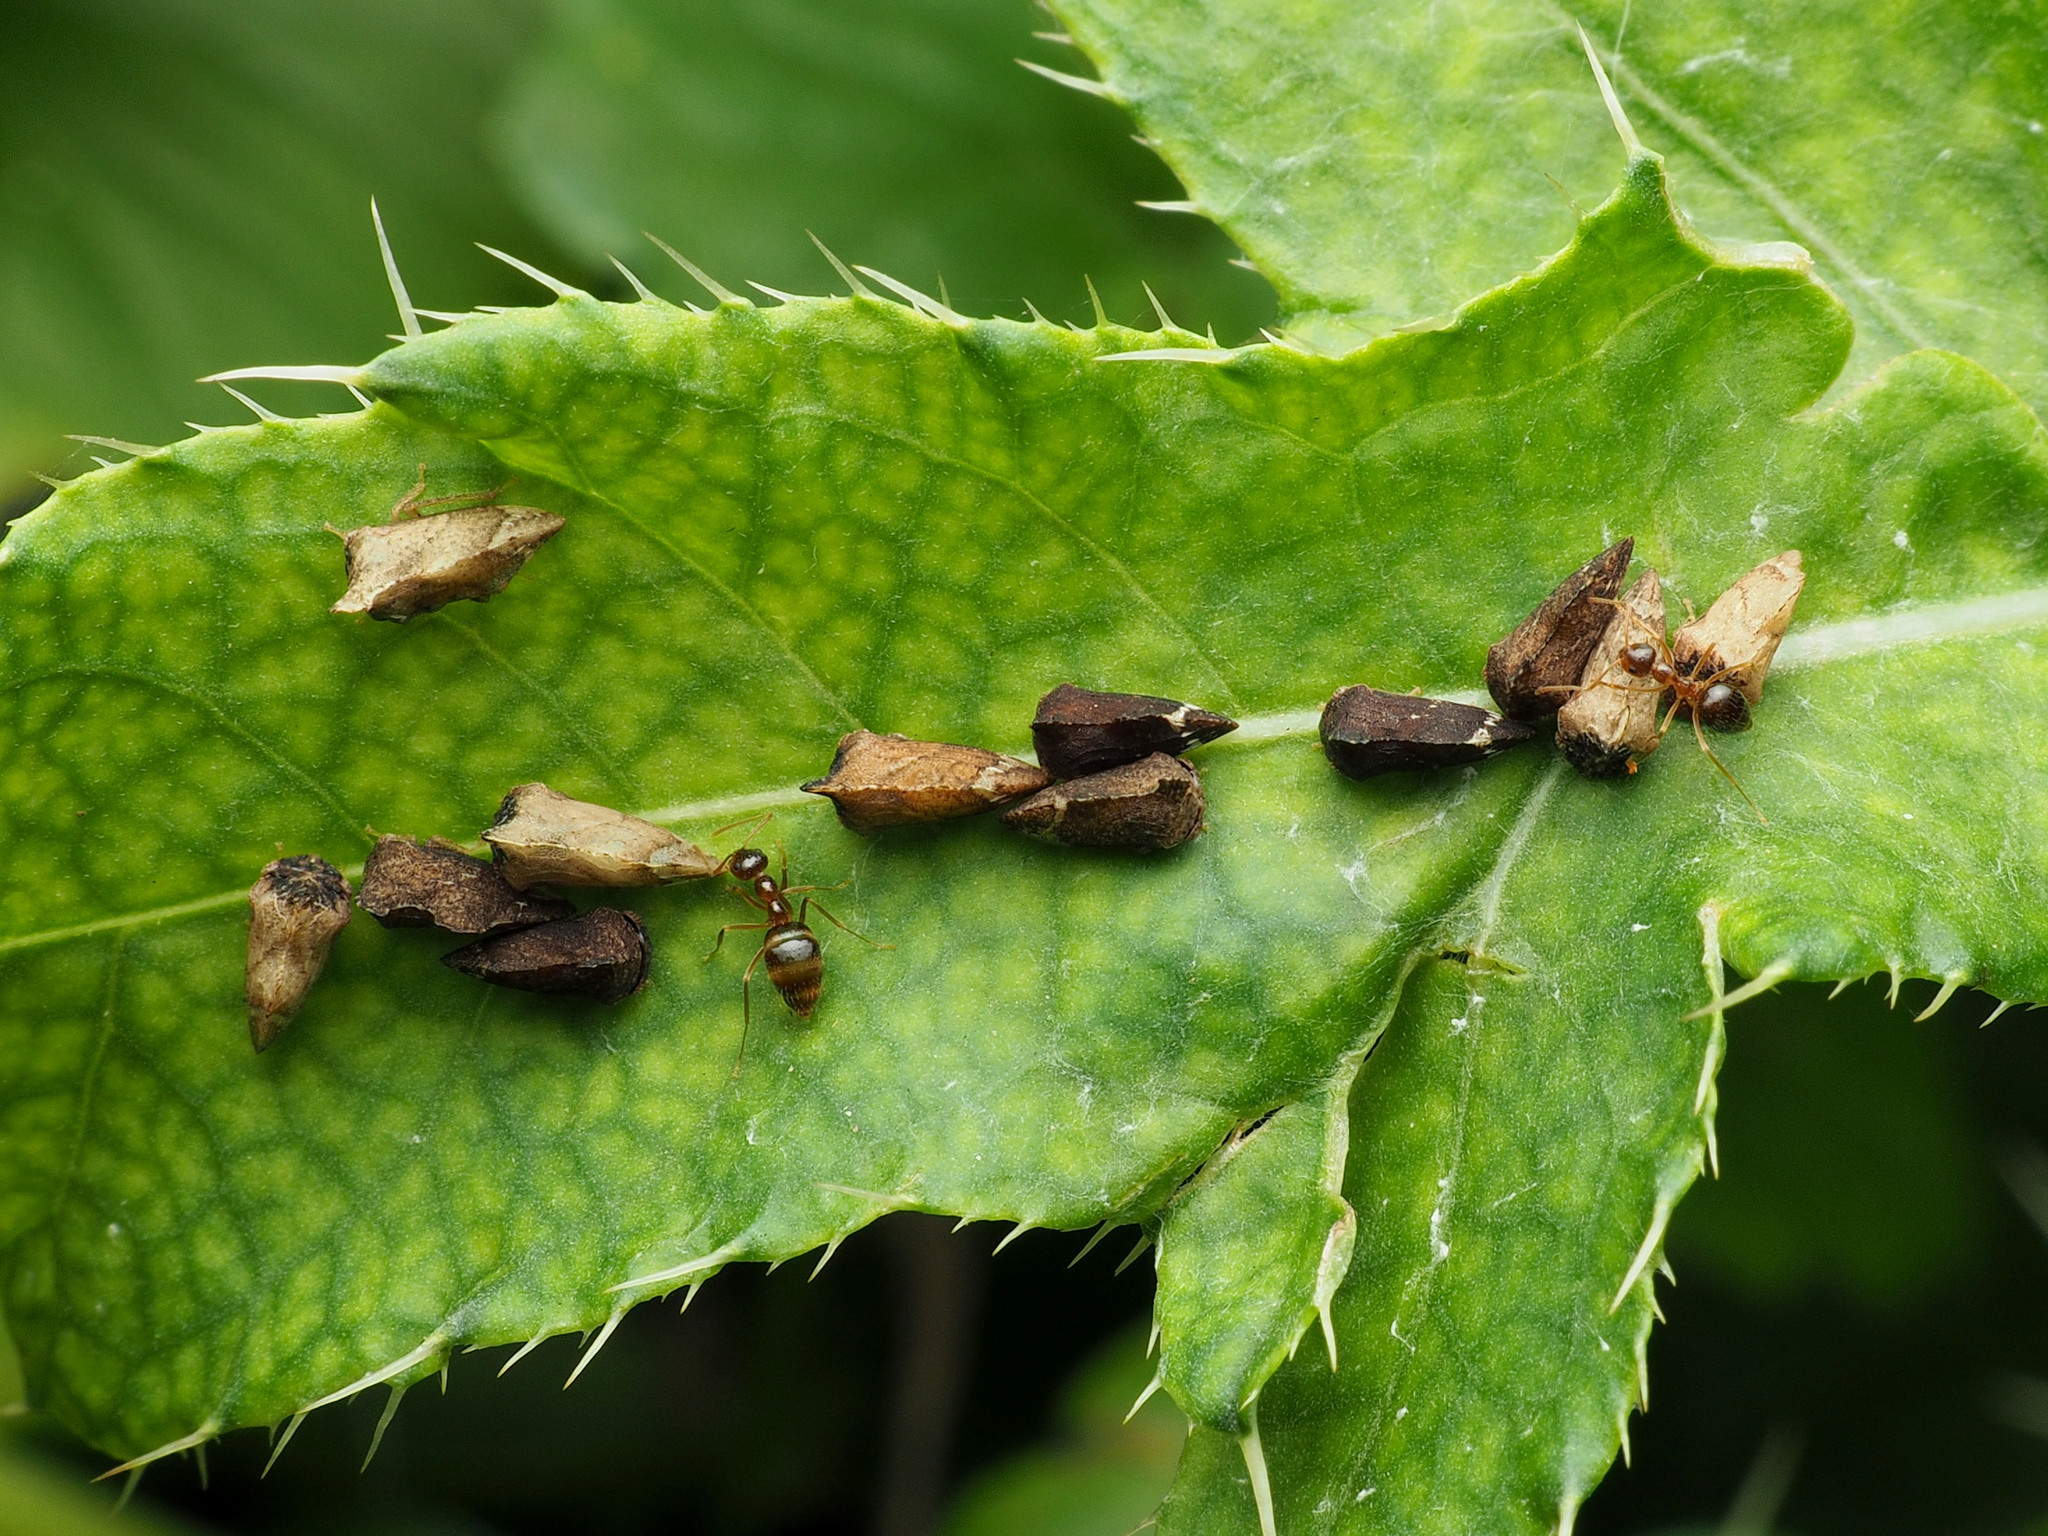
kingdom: Animalia
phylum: Arthropoda
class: Insecta
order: Hemiptera
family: Membracidae
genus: Entylia
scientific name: Entylia carinata
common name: Keeled treehopper
